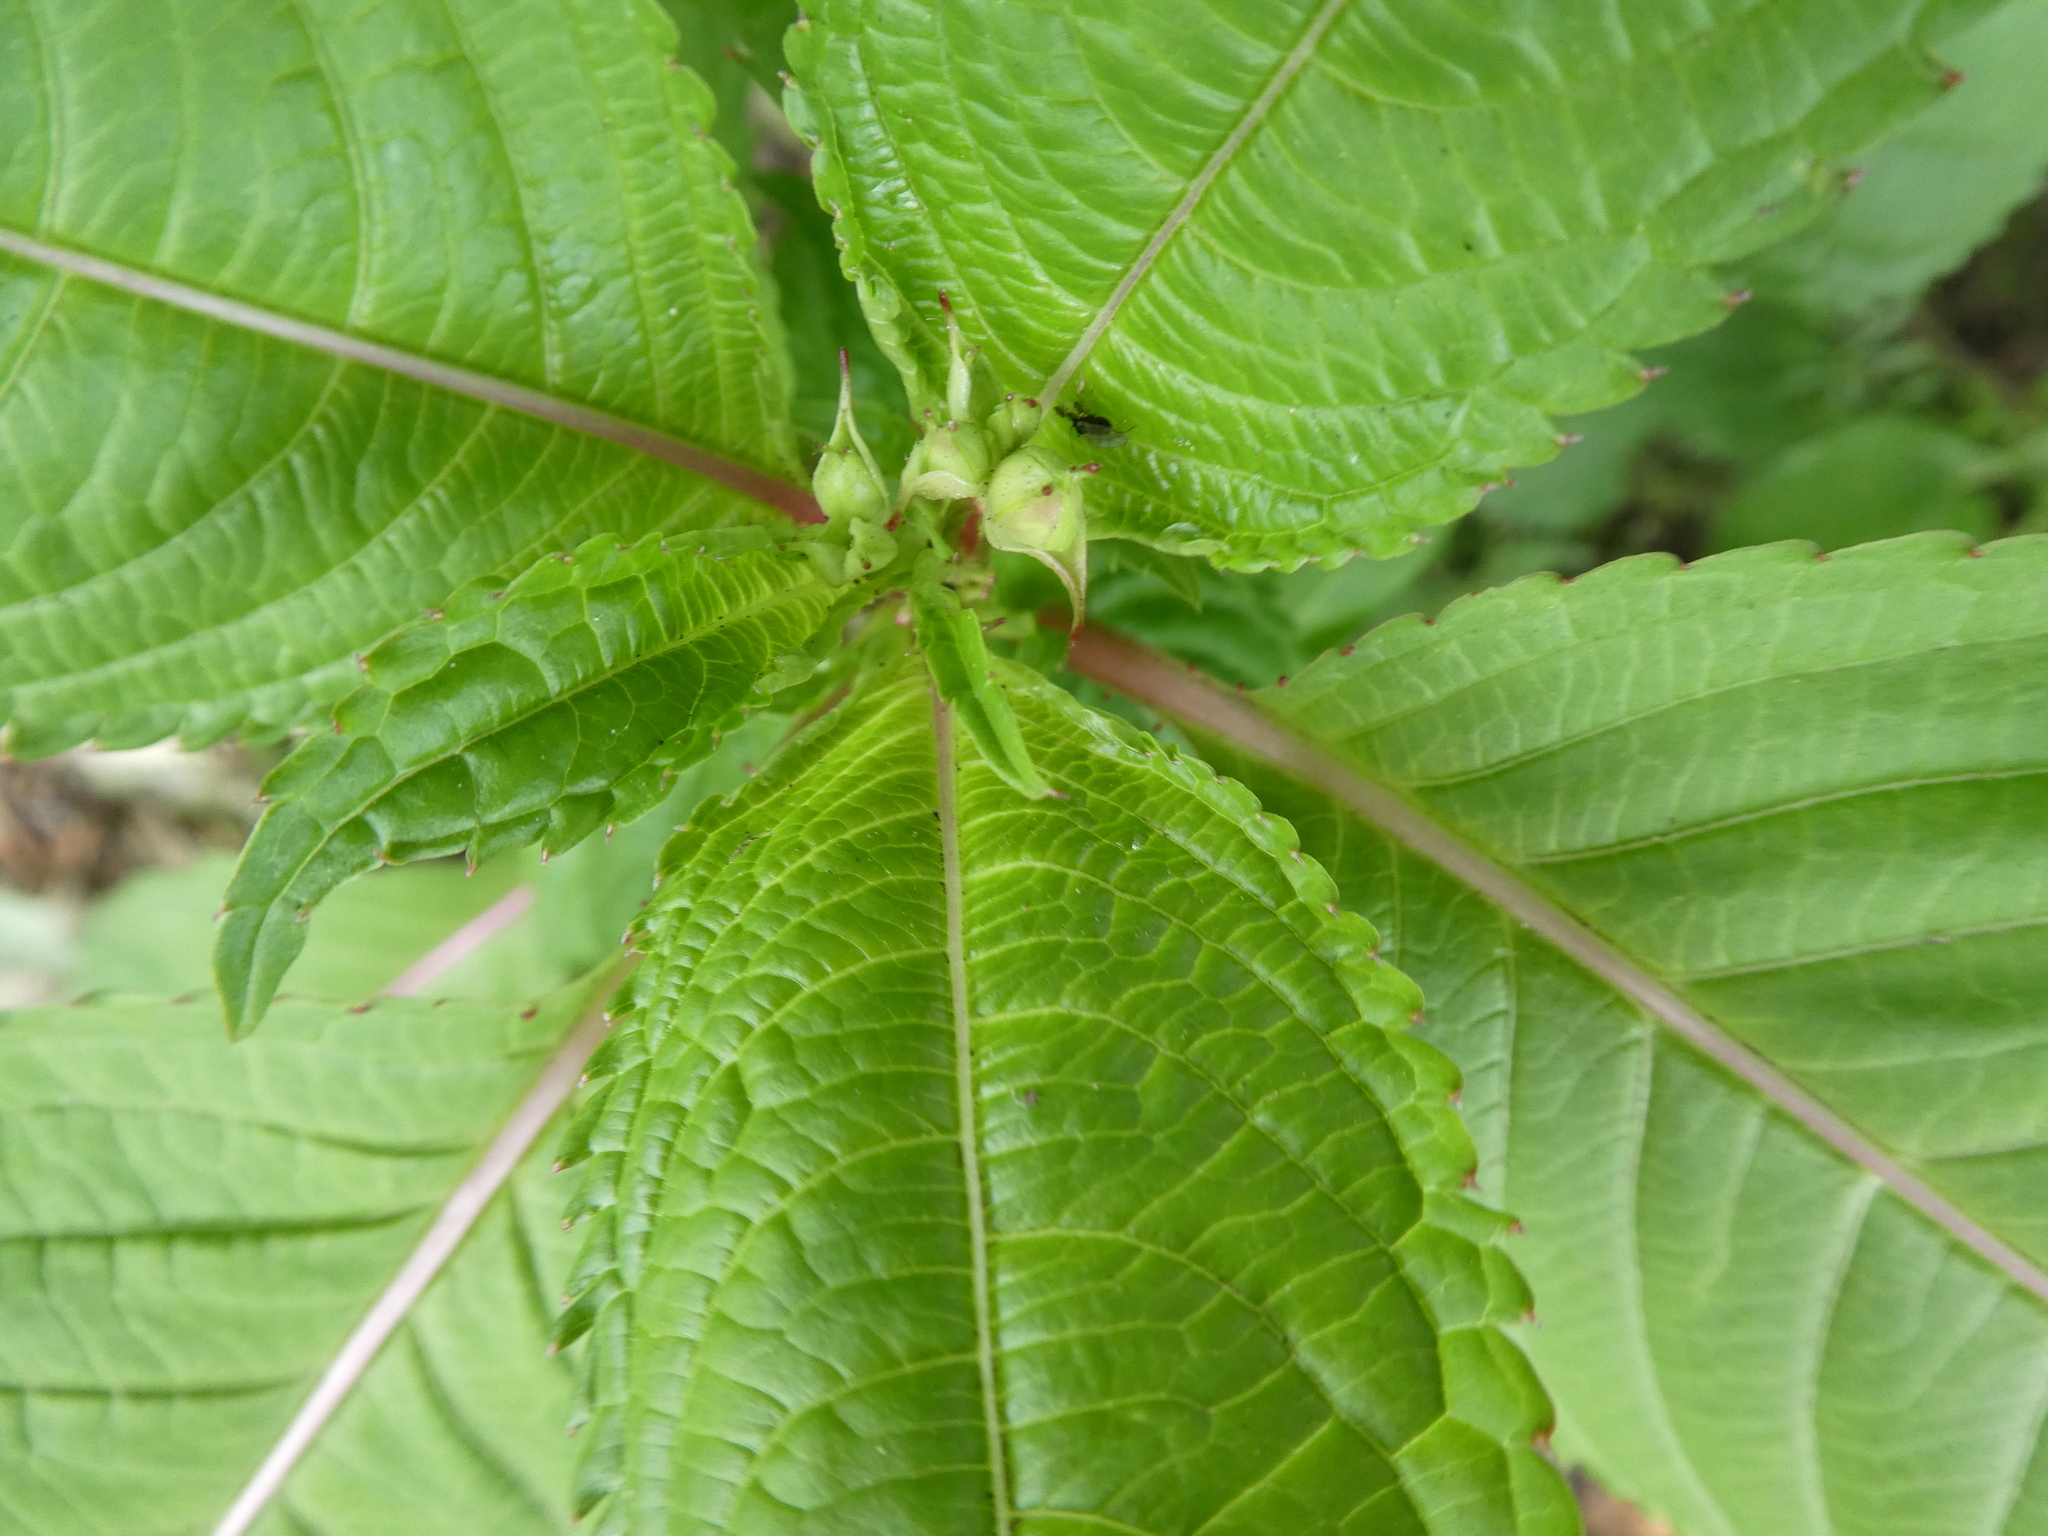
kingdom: Plantae
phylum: Tracheophyta
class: Magnoliopsida
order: Ericales
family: Balsaminaceae
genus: Impatiens
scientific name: Impatiens glandulifera
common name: Himalayan balsam
